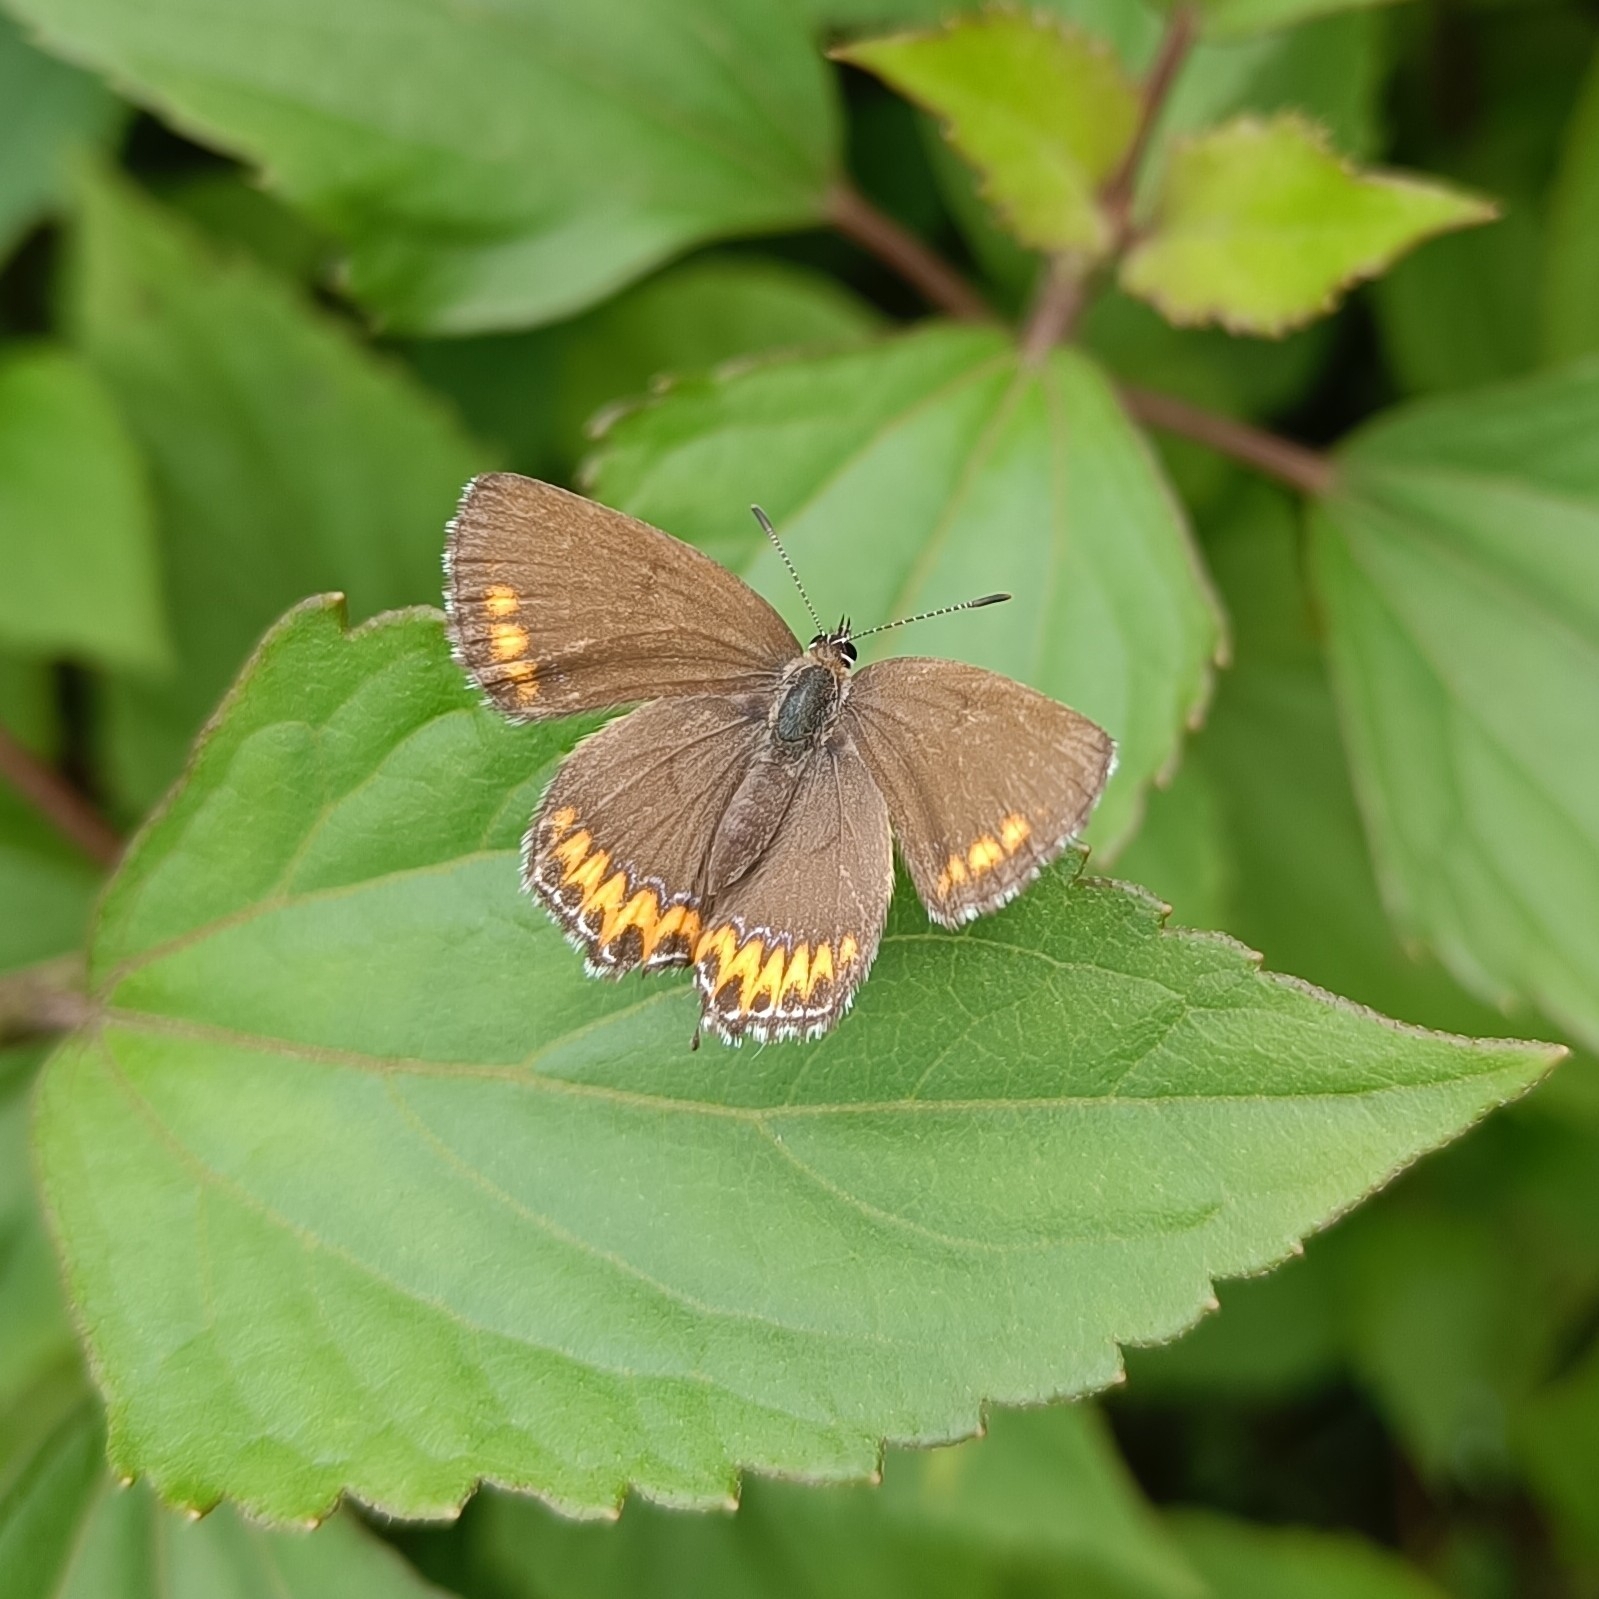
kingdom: Animalia
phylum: Arthropoda
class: Insecta
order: Lepidoptera
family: Lycaenidae
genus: Heliophorus
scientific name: Heliophorus sena
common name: Sorrel sapphire
